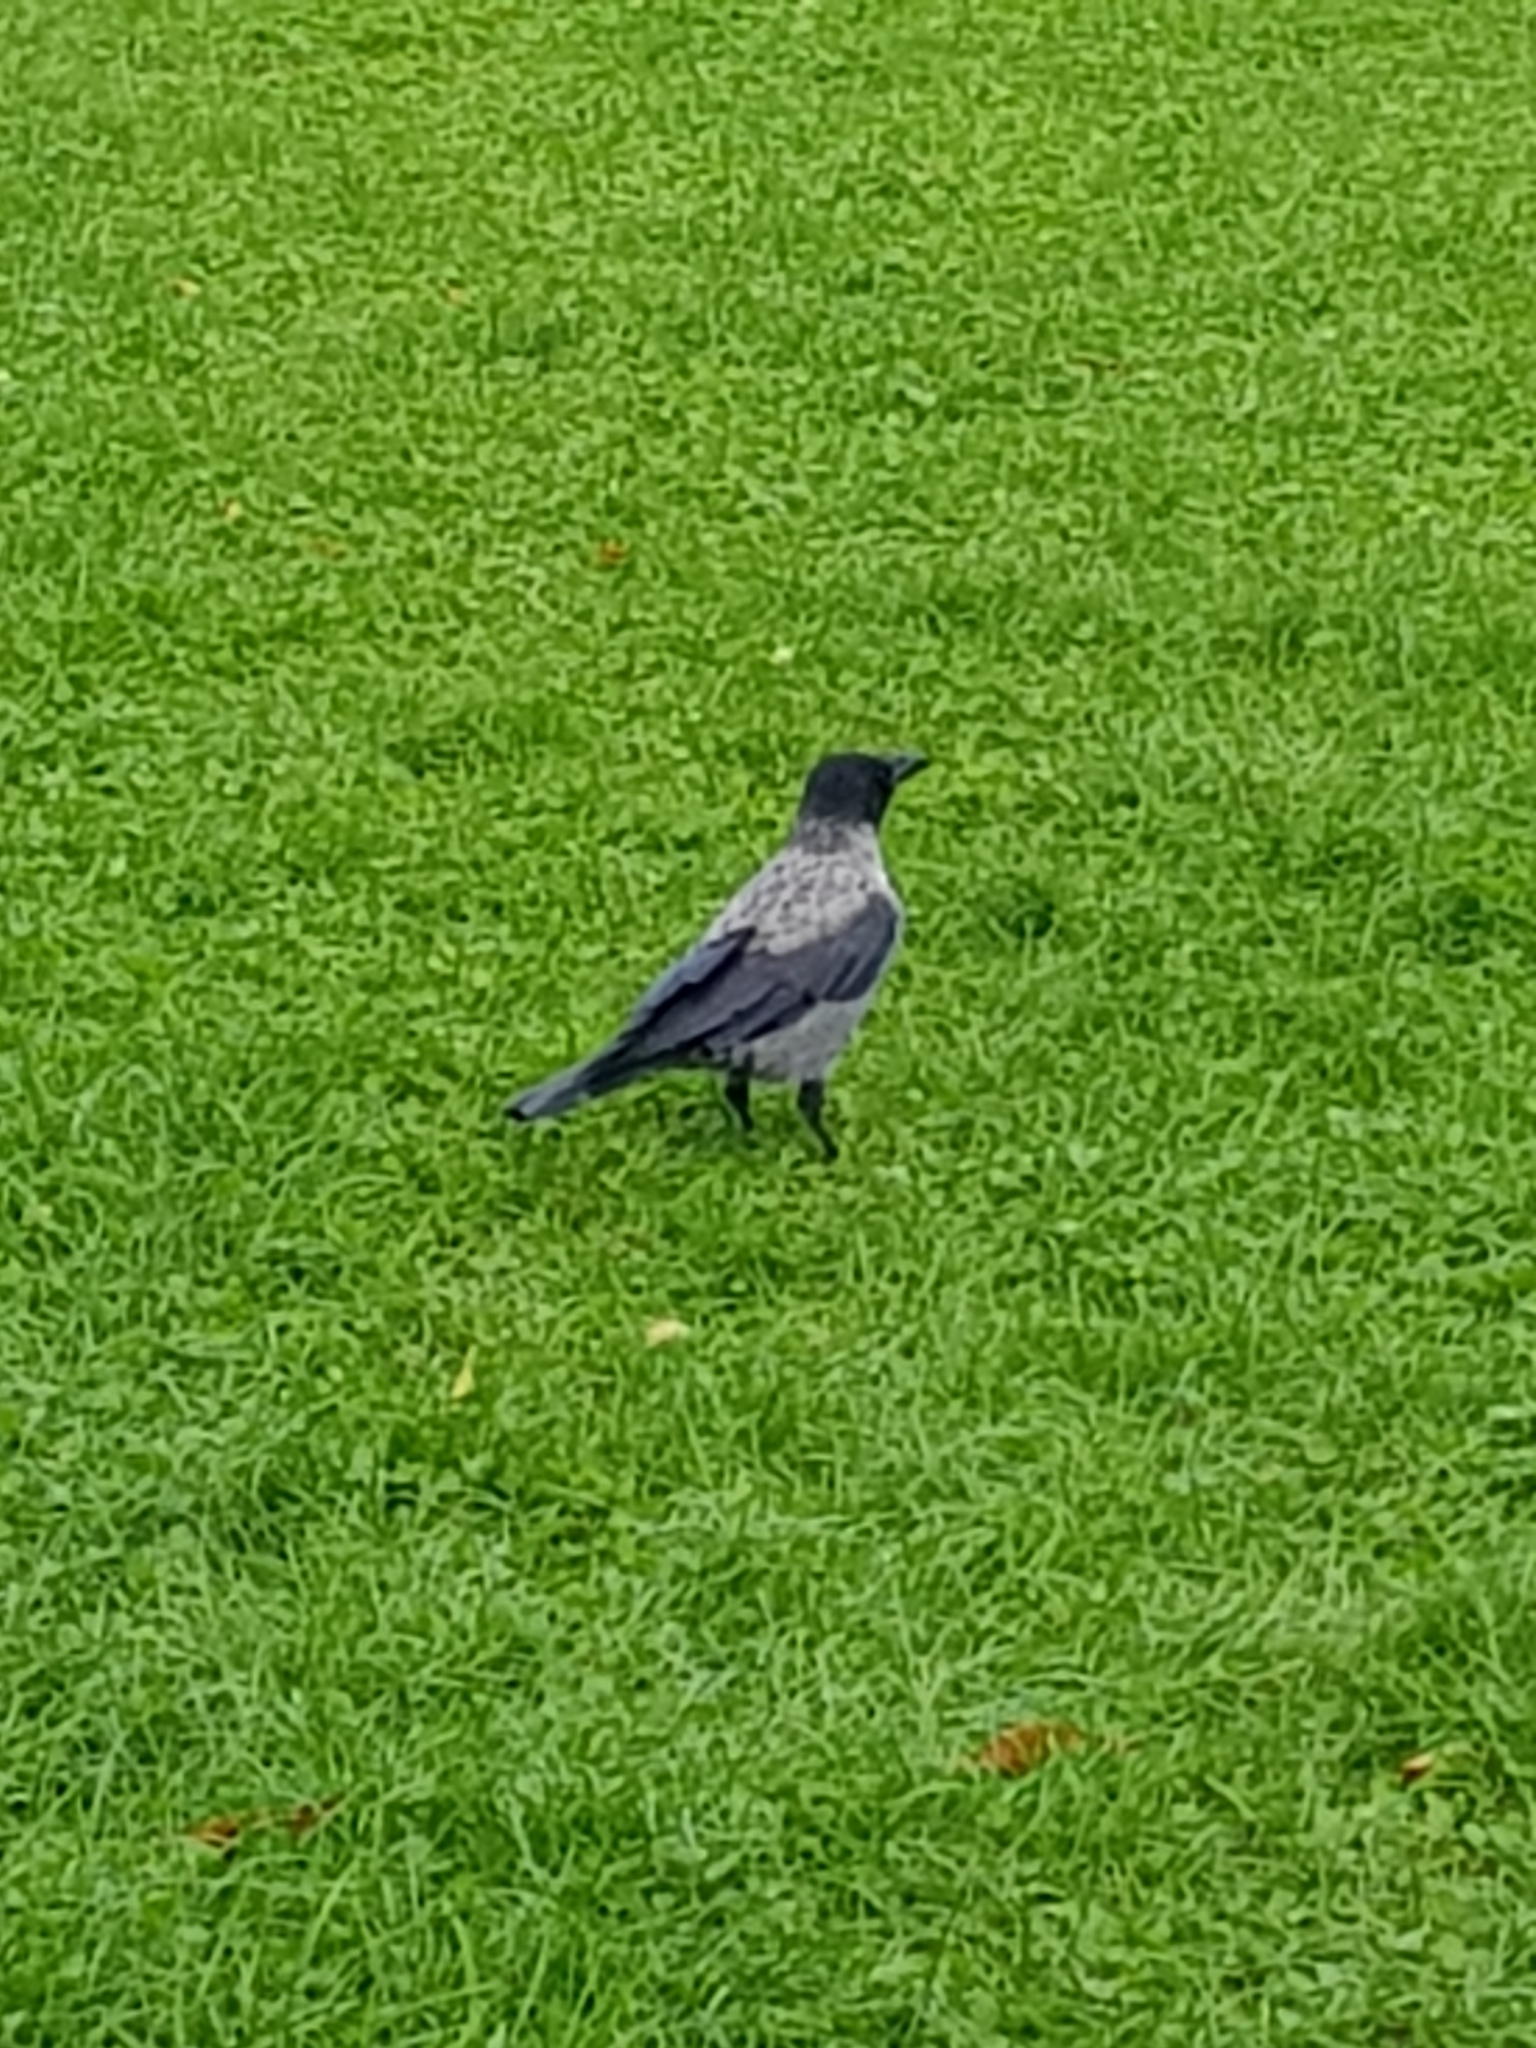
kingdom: Animalia
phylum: Chordata
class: Aves
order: Passeriformes
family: Corvidae
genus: Corvus
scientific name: Corvus cornix
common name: Hooded crow
